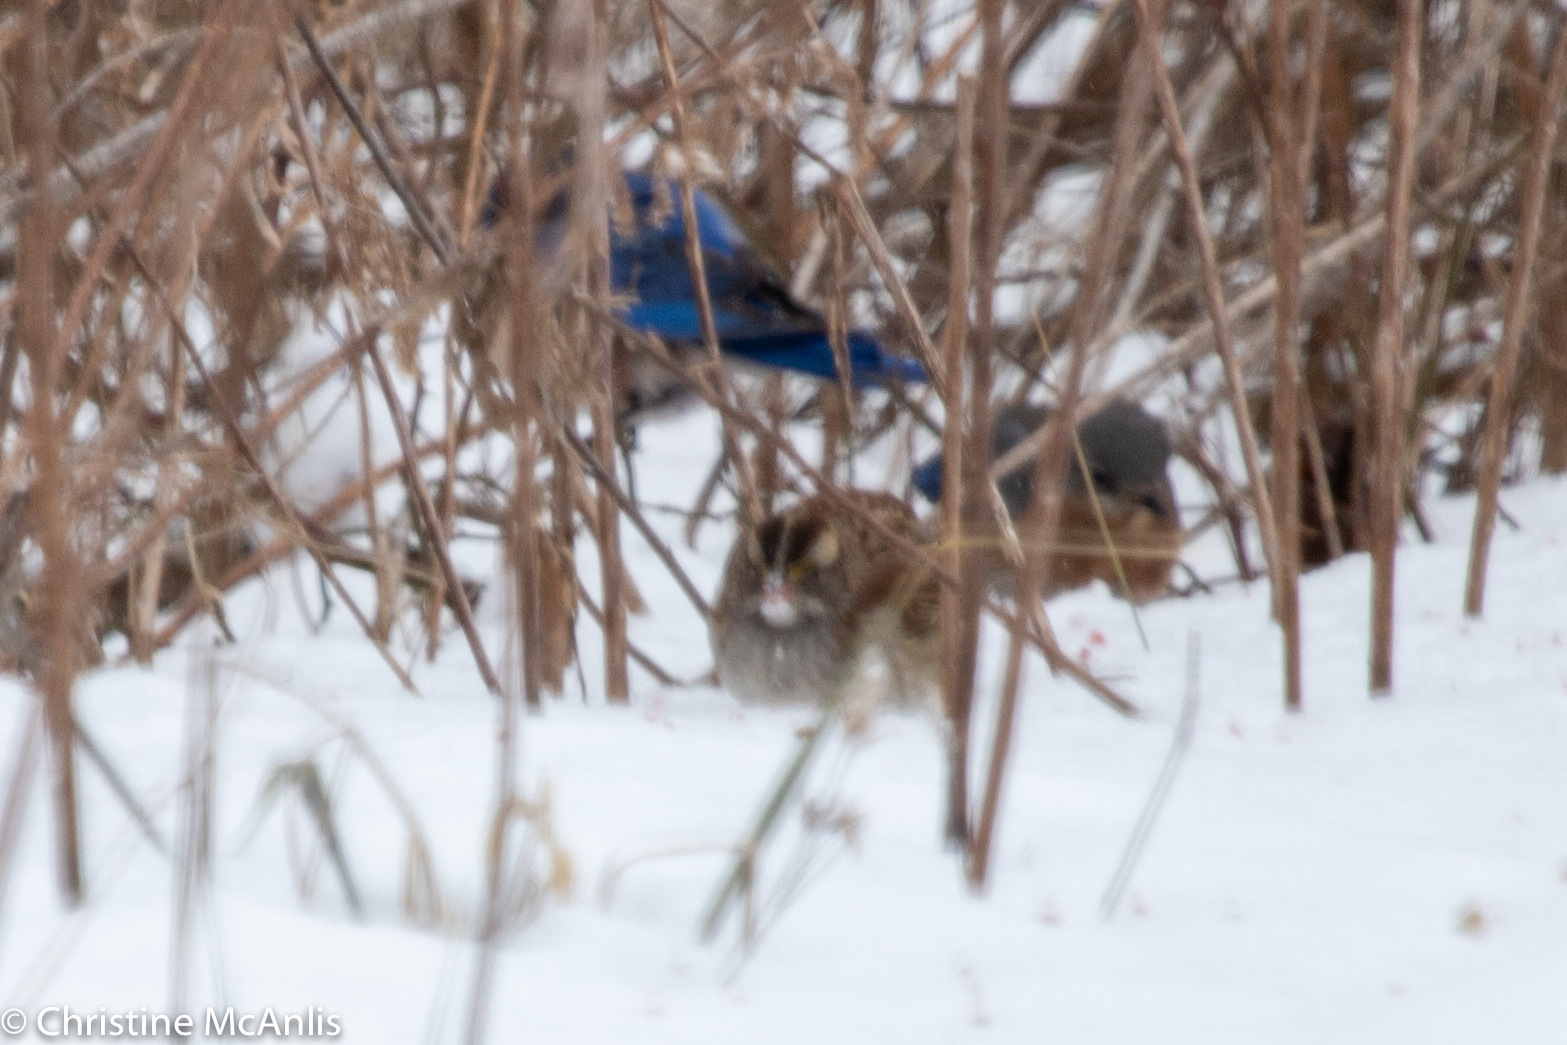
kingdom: Animalia
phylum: Chordata
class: Aves
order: Passeriformes
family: Passerellidae
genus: Zonotrichia
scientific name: Zonotrichia albicollis
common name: White-throated sparrow
